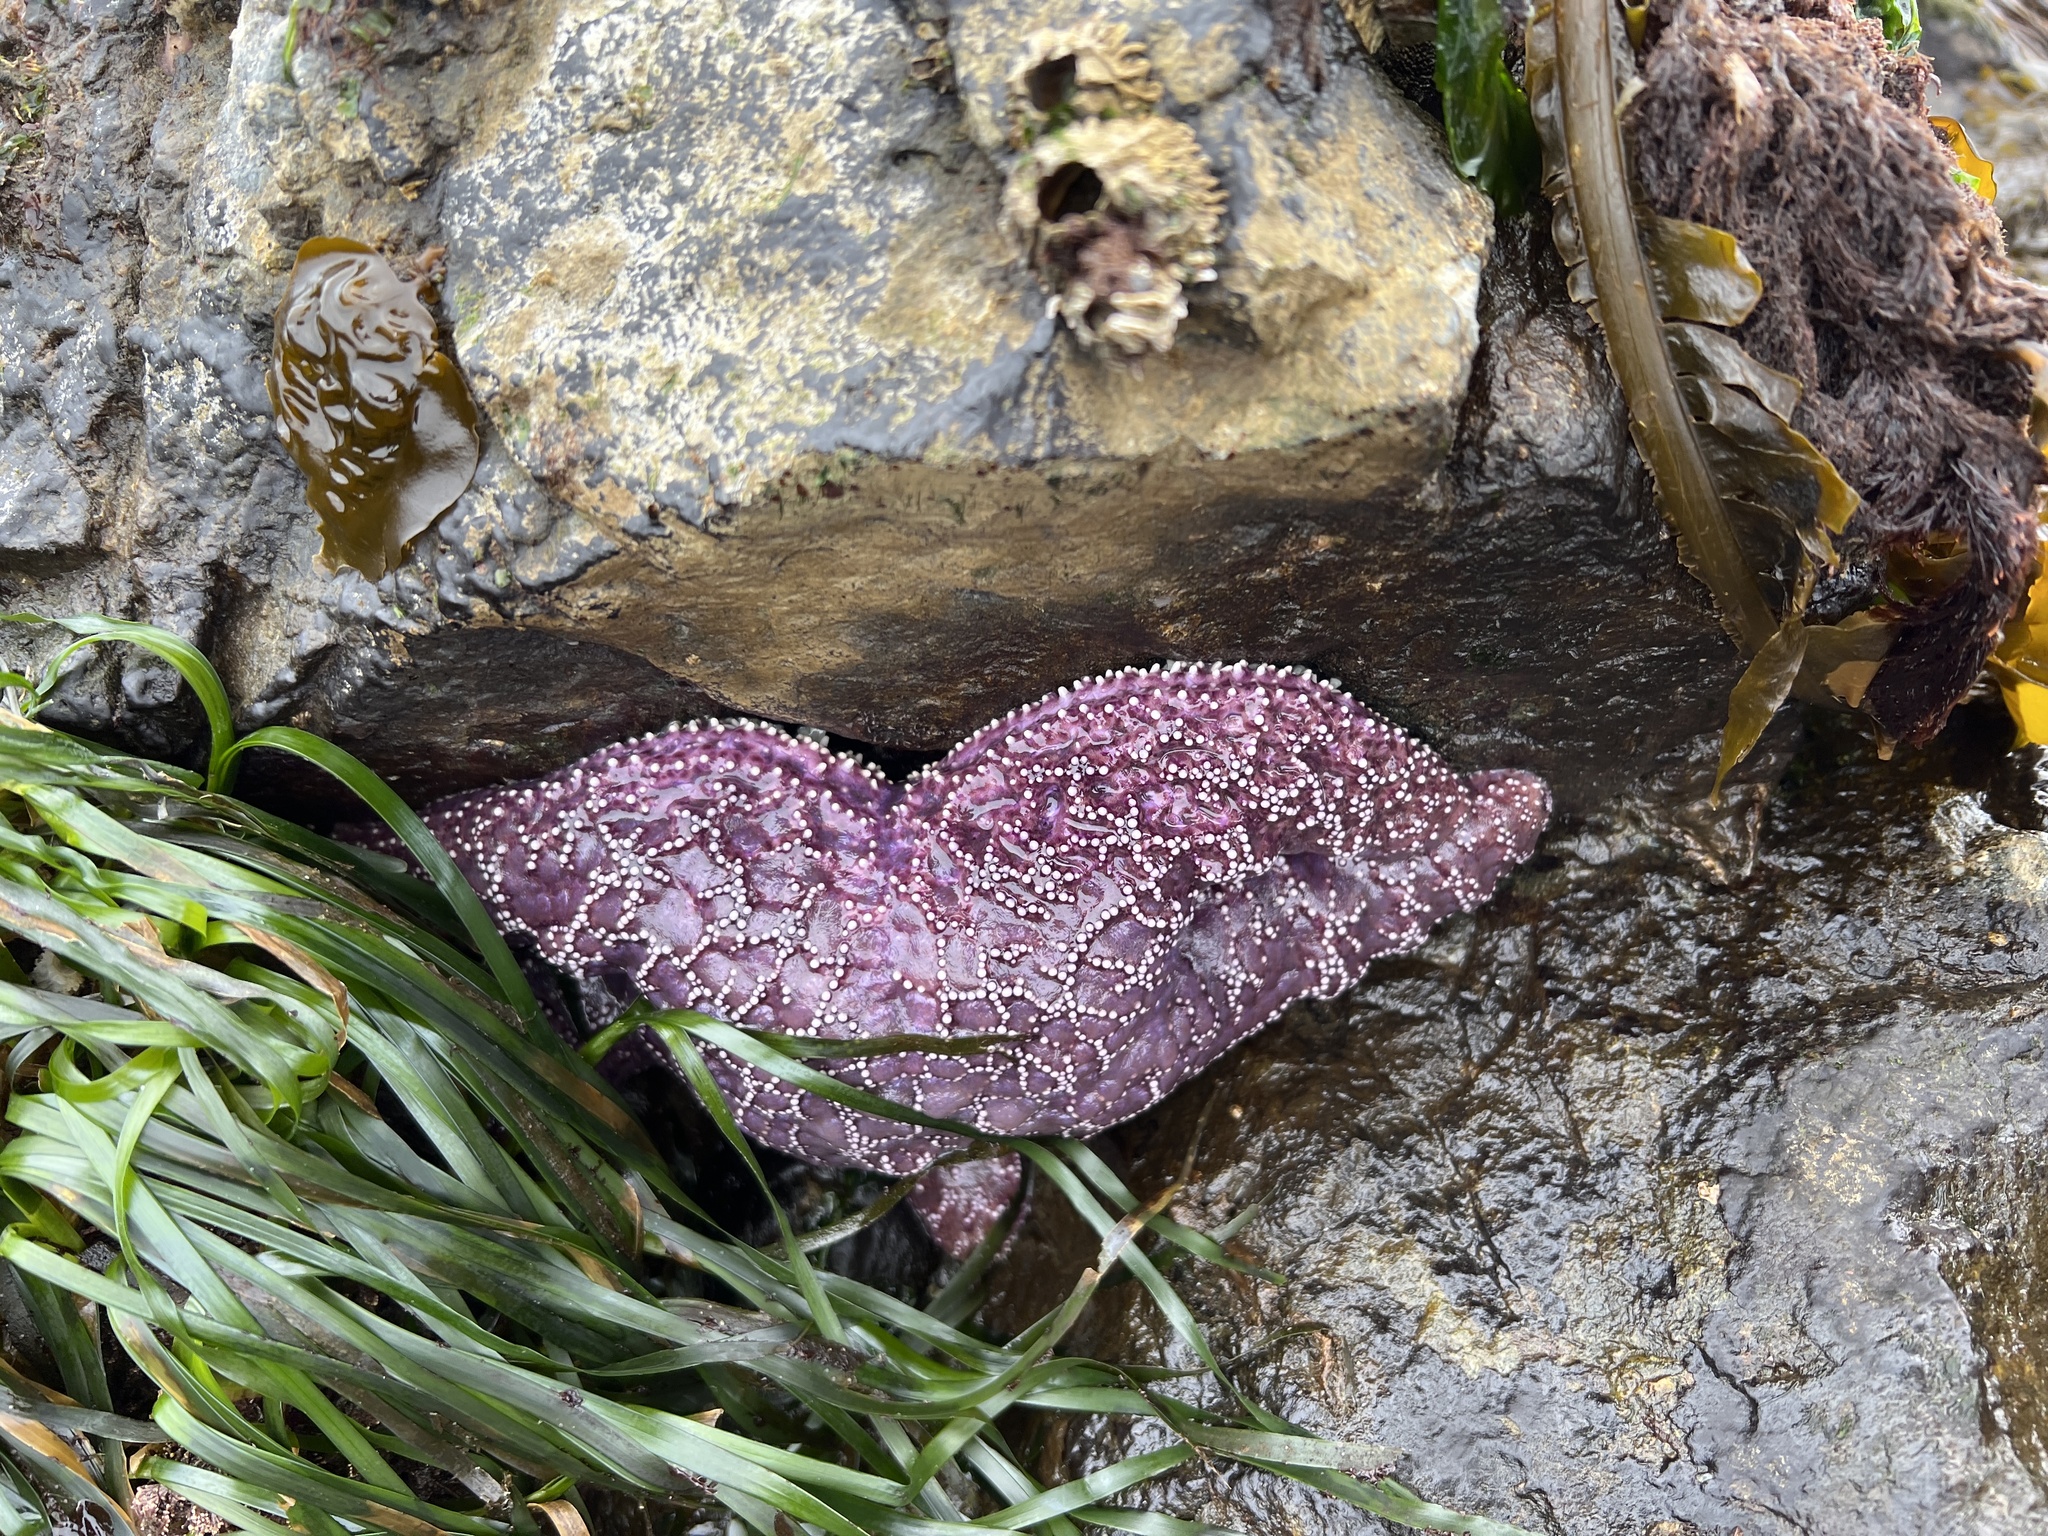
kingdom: Animalia
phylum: Echinodermata
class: Asteroidea
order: Forcipulatida
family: Asteriidae
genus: Pisaster
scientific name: Pisaster ochraceus
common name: Ochre stars
